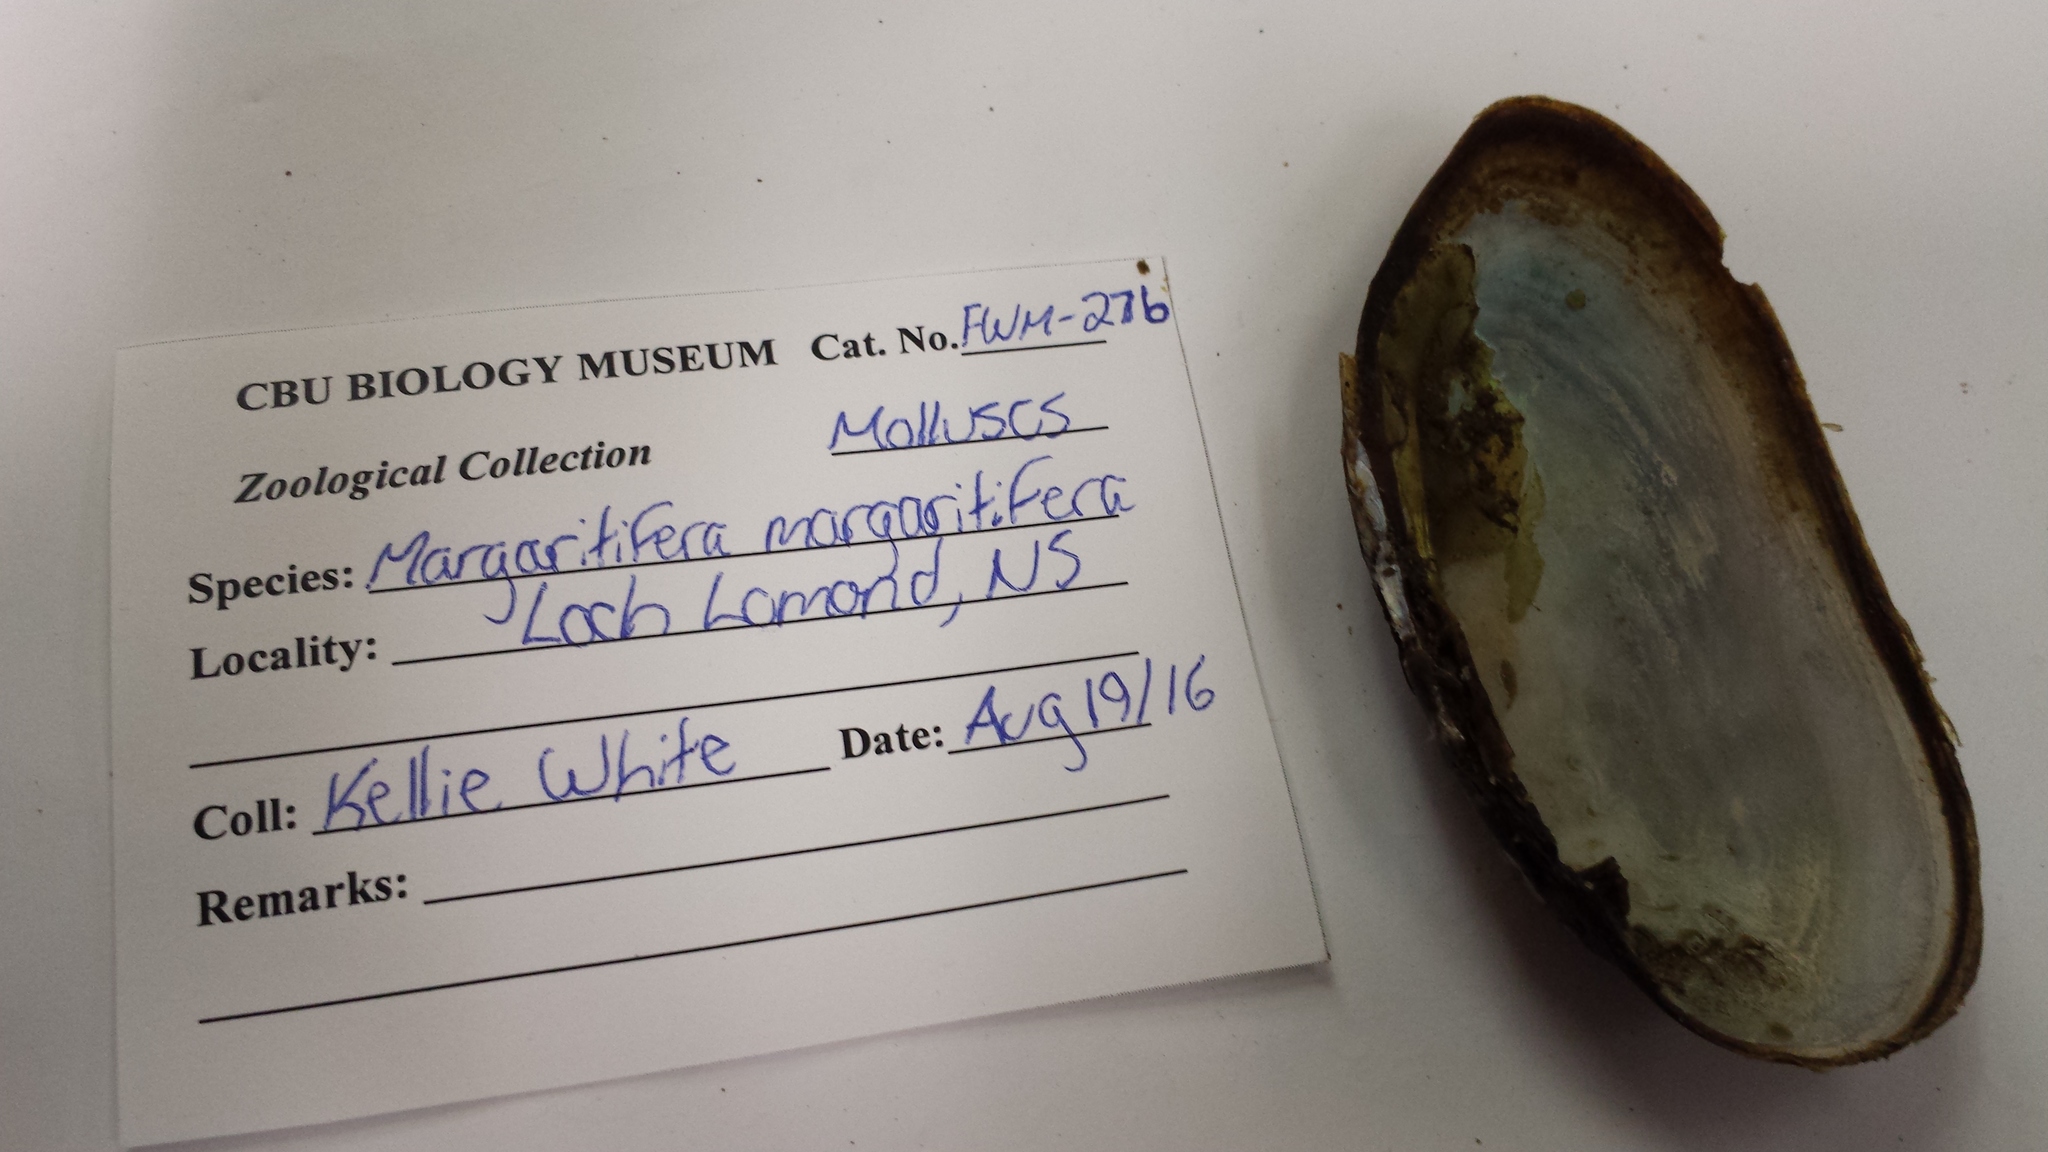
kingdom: Animalia
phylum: Mollusca
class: Bivalvia
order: Unionida
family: Margaritiferidae
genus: Margaritifera
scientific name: Margaritifera margaritifera
